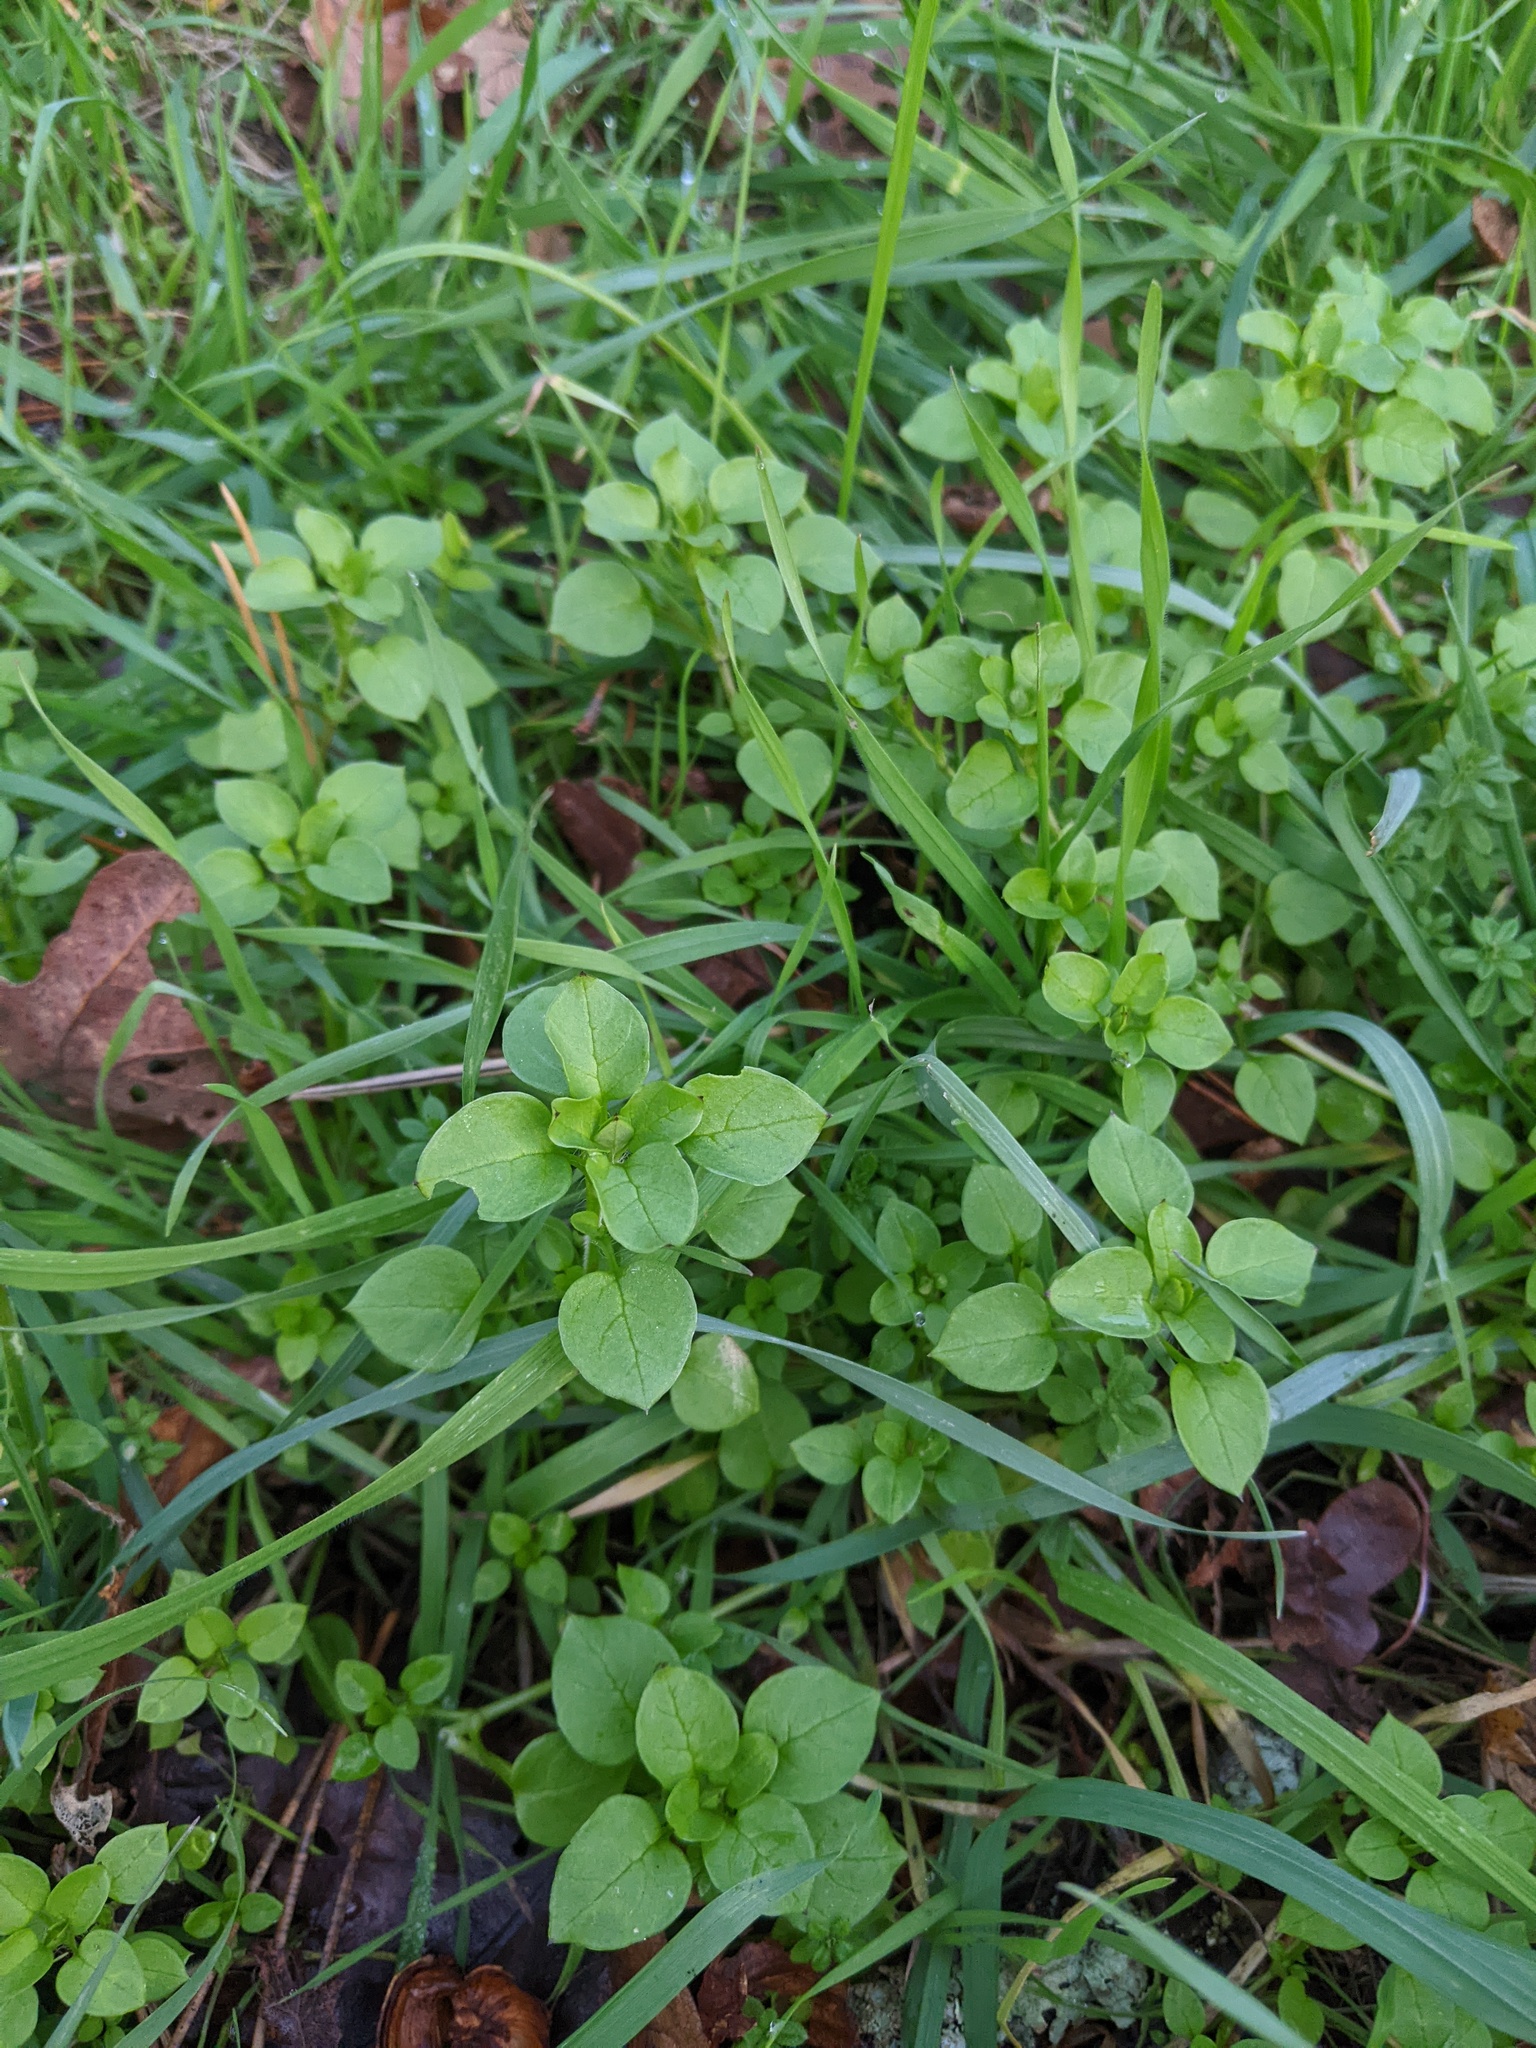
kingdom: Plantae
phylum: Tracheophyta
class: Magnoliopsida
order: Caryophyllales
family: Caryophyllaceae
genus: Stellaria
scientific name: Stellaria media
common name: Common chickweed
